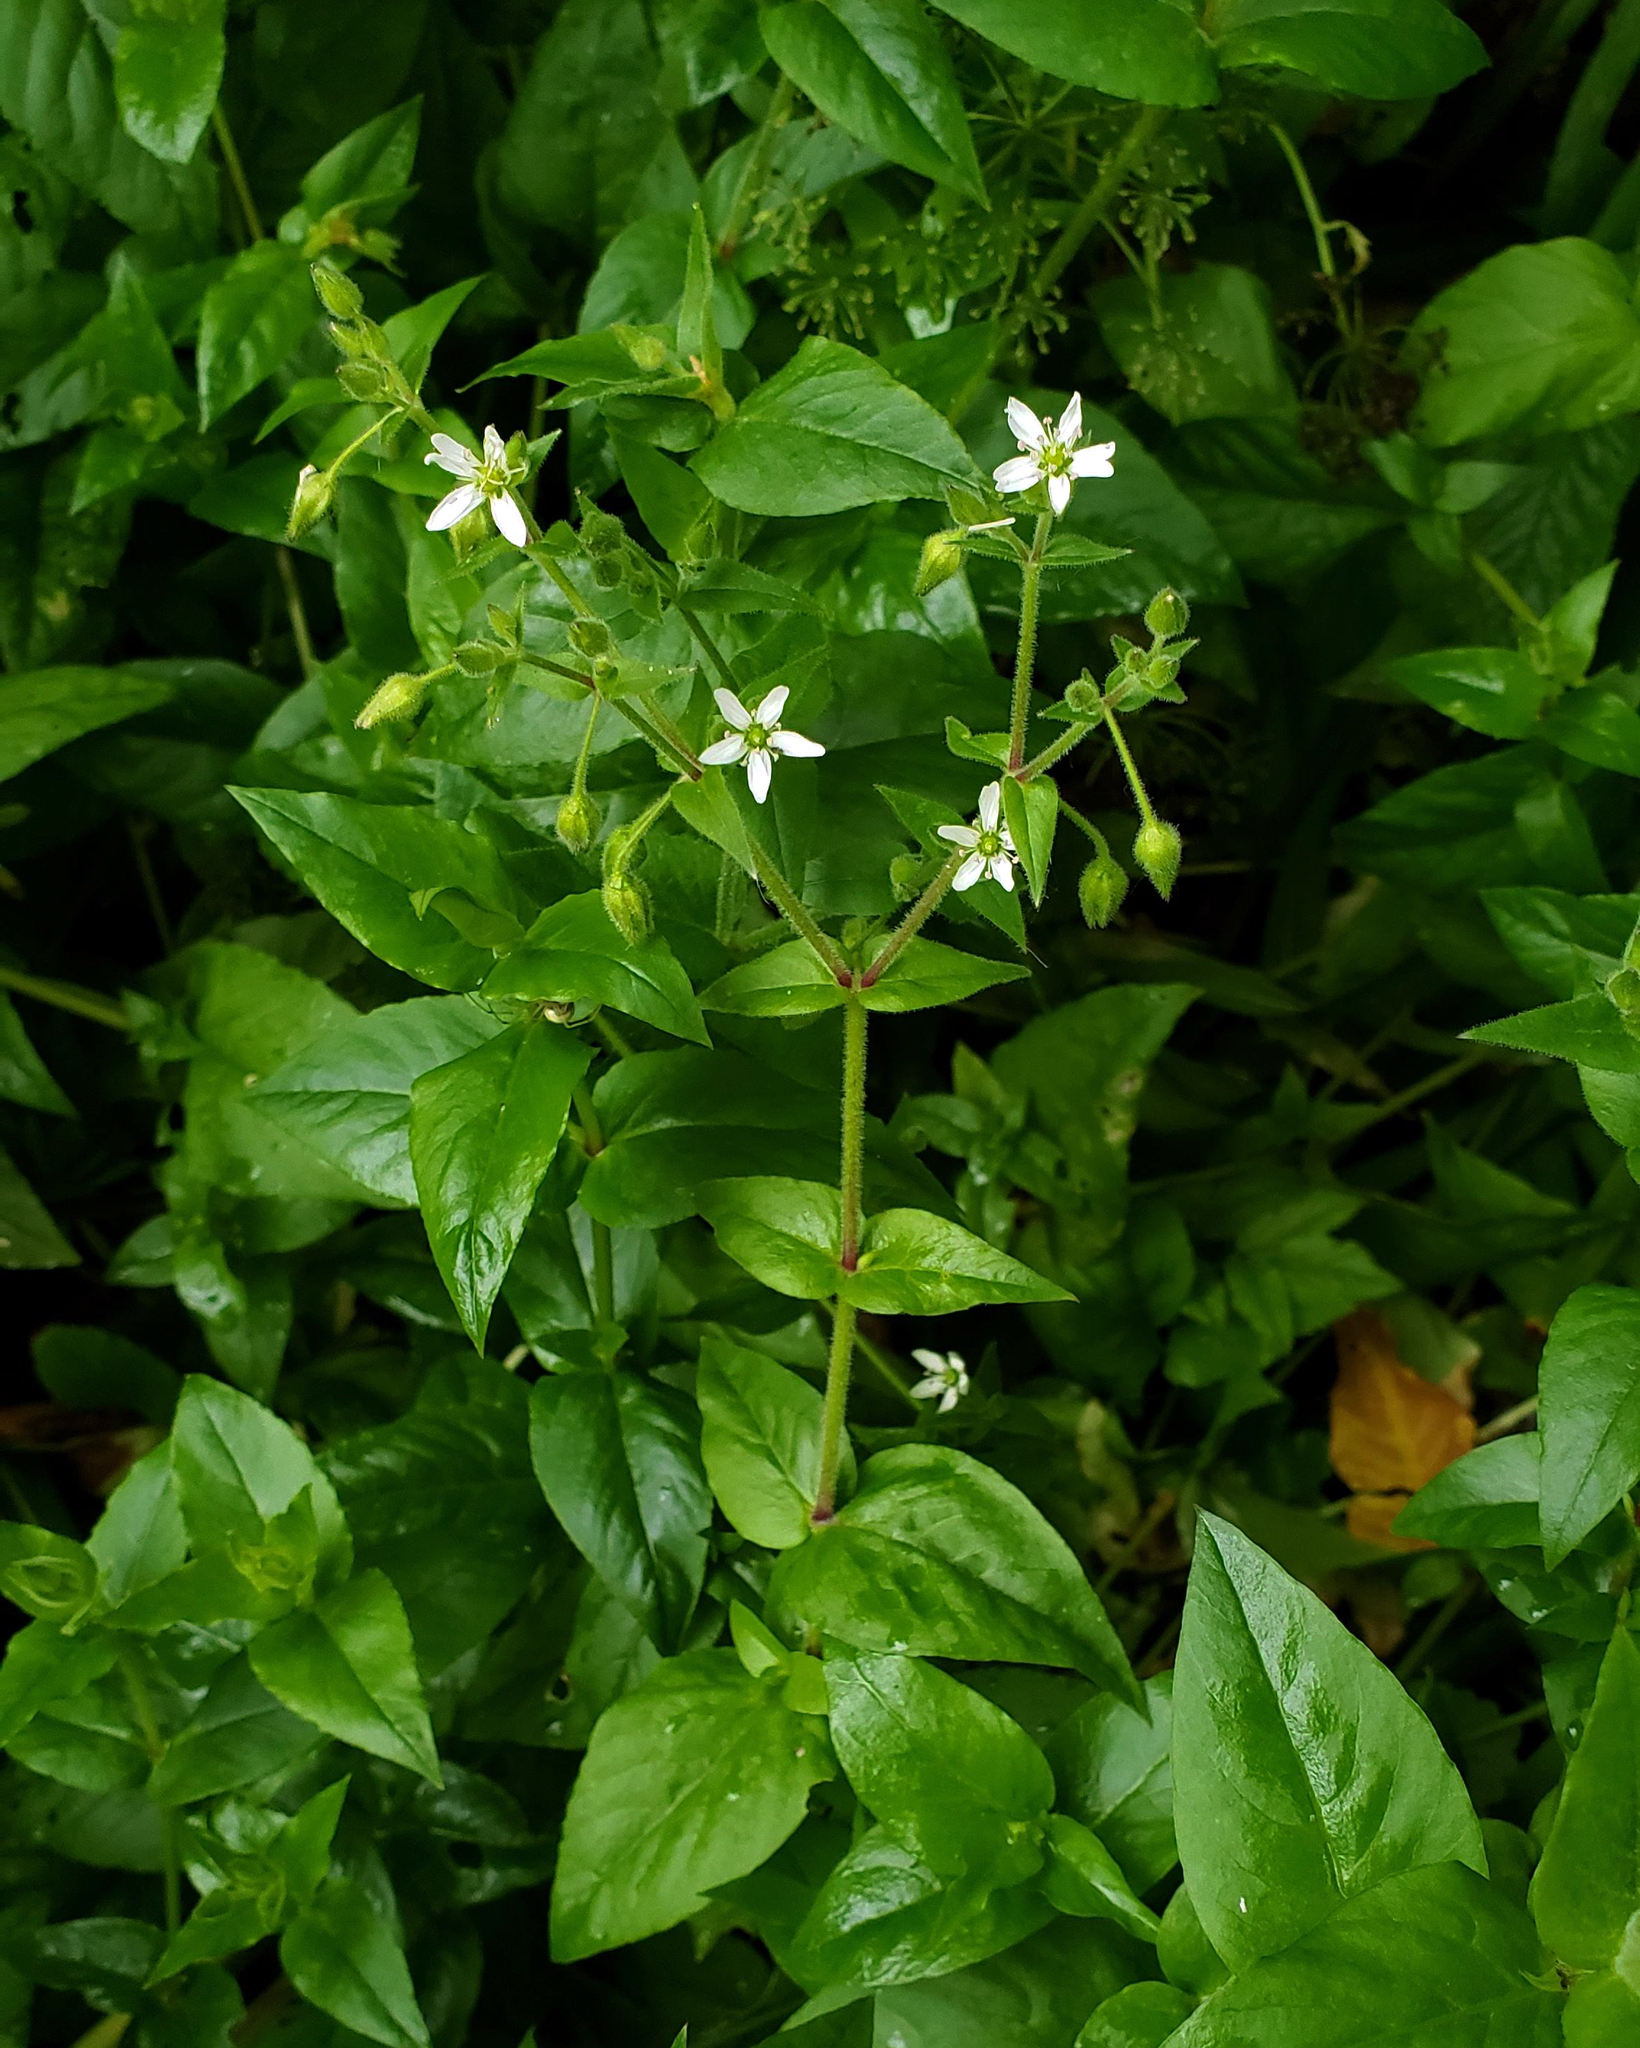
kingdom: Plantae
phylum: Tracheophyta
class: Magnoliopsida
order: Caryophyllales
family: Caryophyllaceae
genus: Stellaria
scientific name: Stellaria aquatica
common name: Water chickweed
